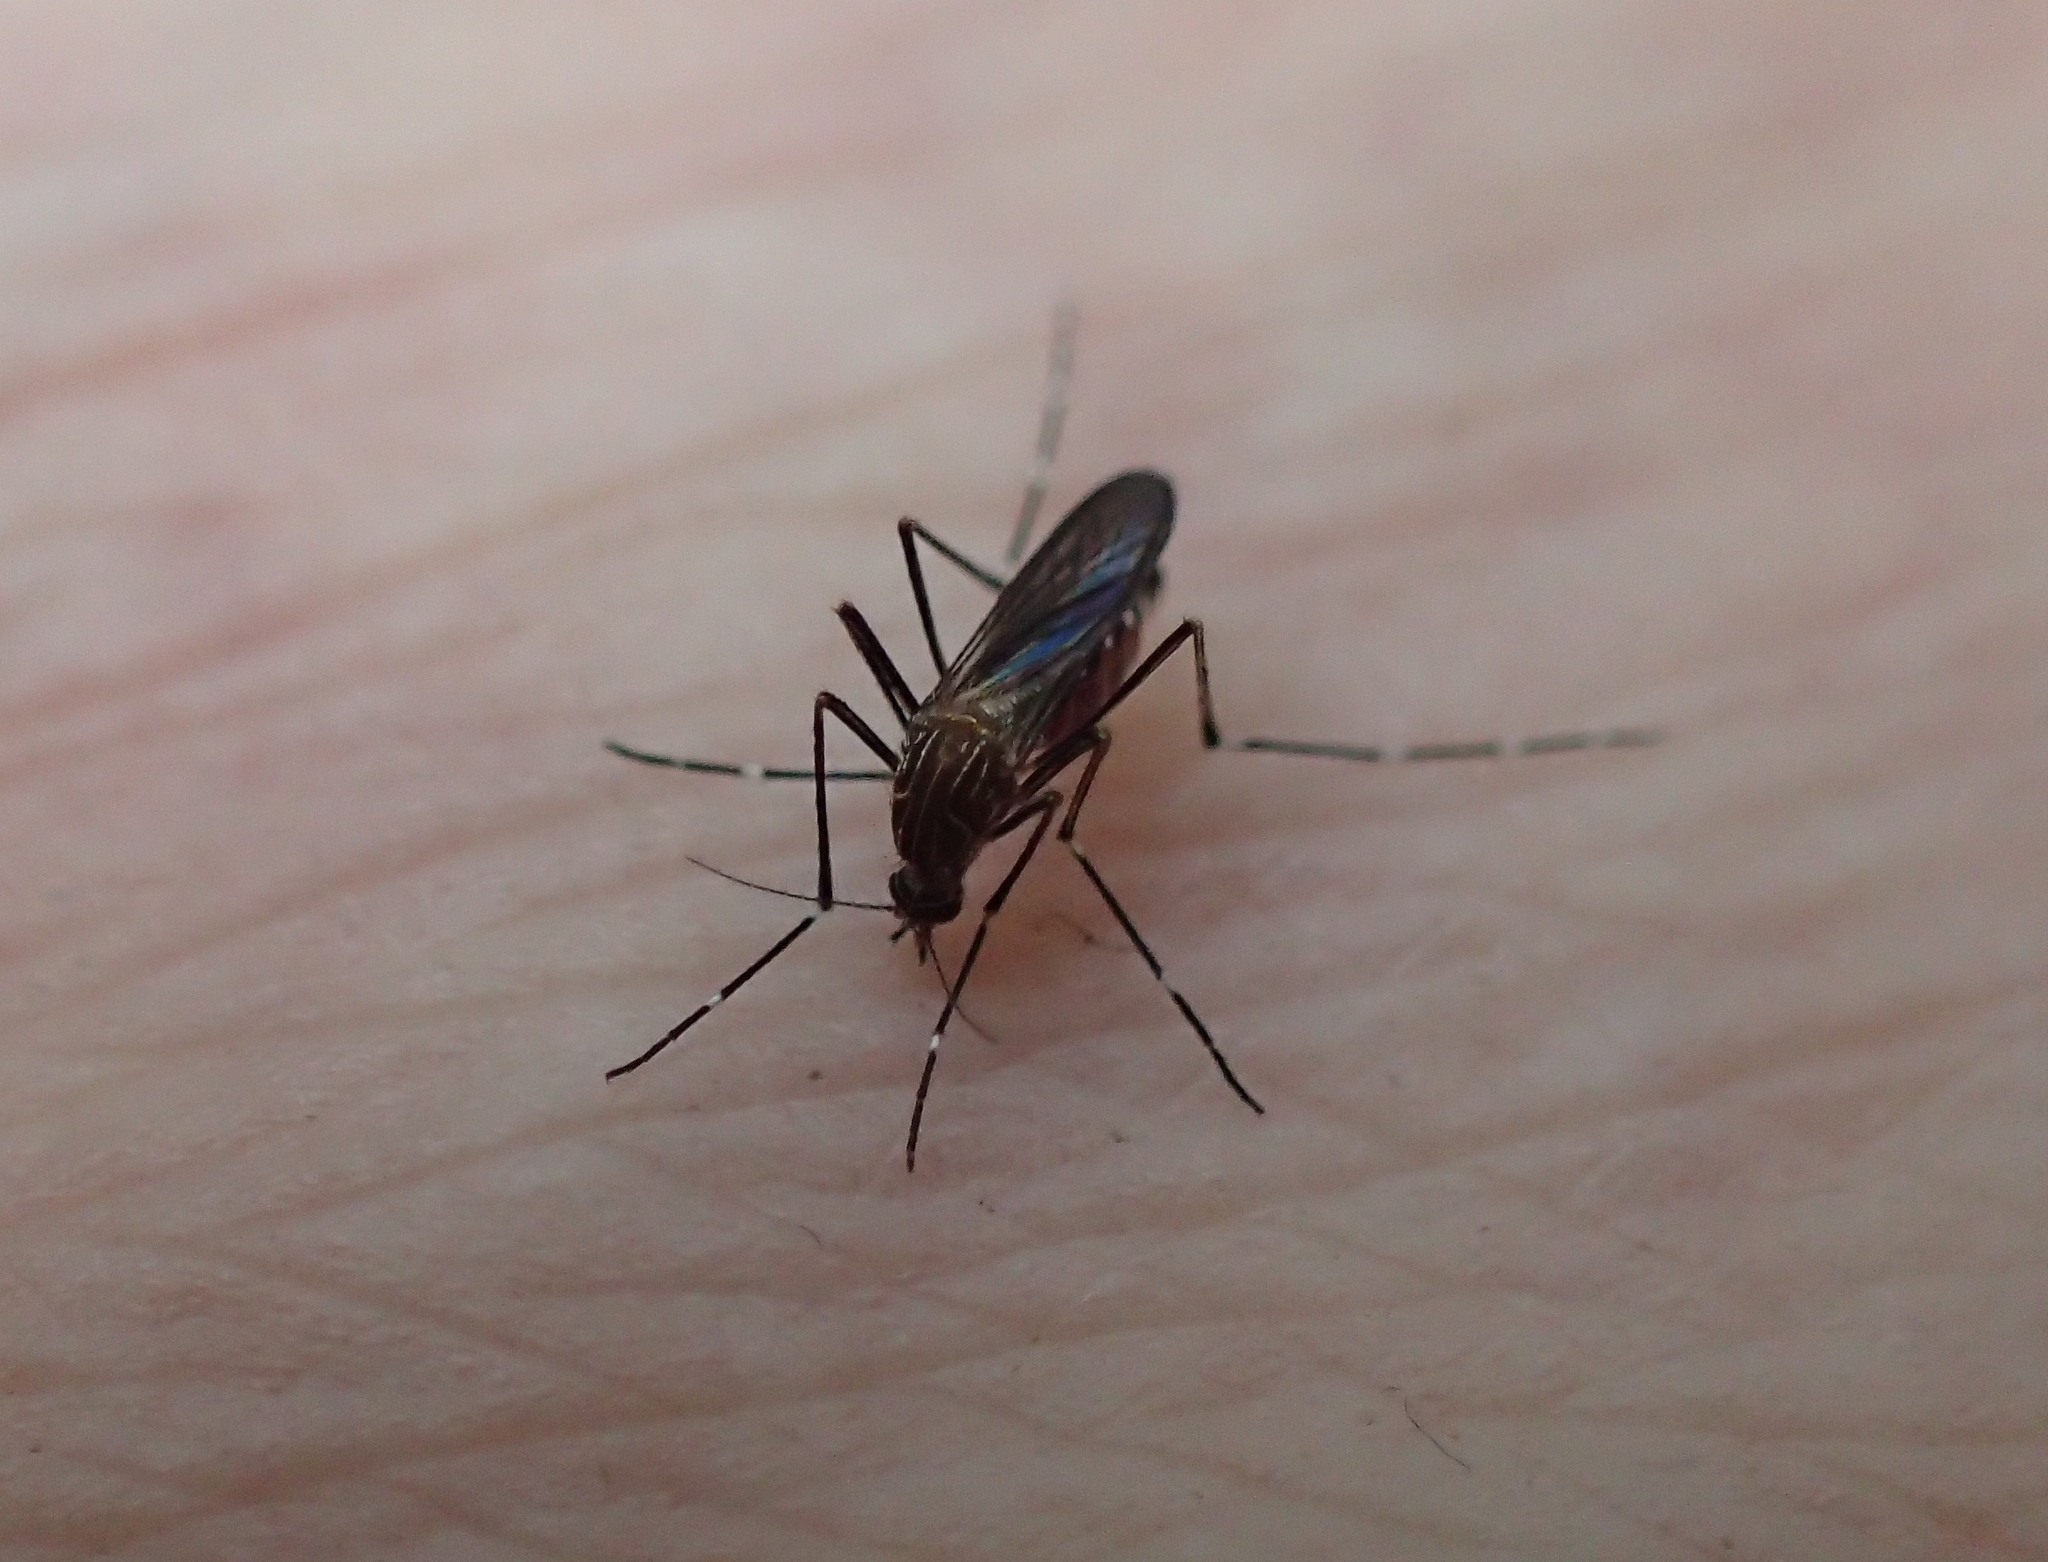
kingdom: Animalia
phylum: Arthropoda
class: Insecta
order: Diptera
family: Culicidae
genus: Aedes
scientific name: Aedes notoscriptus
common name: Australian backyard mosquito
